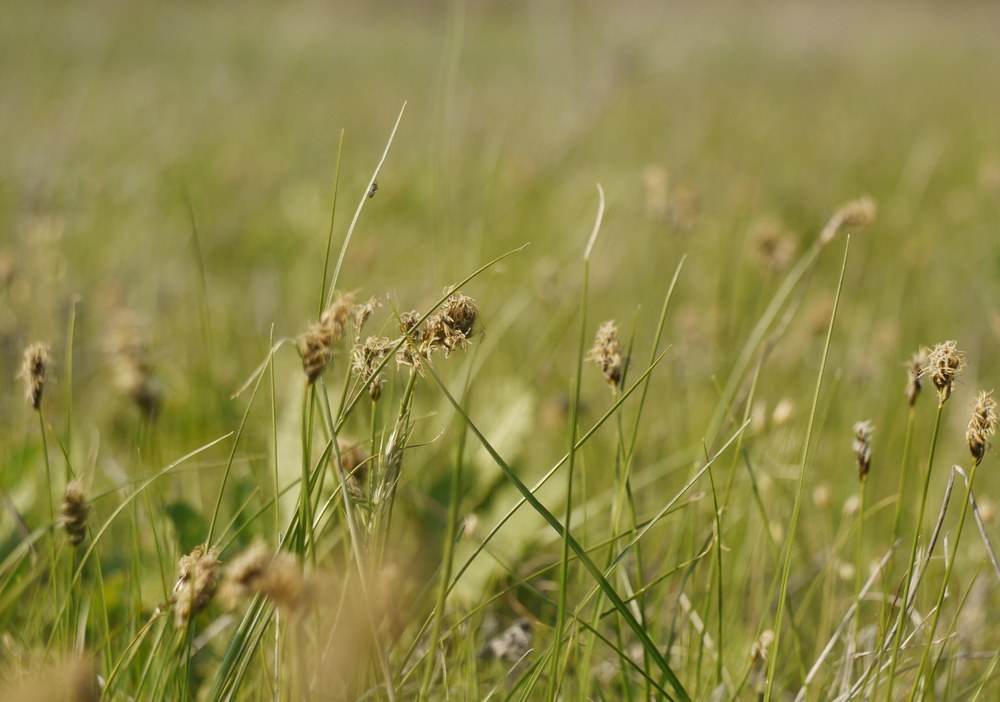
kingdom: Plantae
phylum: Tracheophyta
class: Liliopsida
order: Poales
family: Cyperaceae
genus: Carex
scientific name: Carex stenophylla
